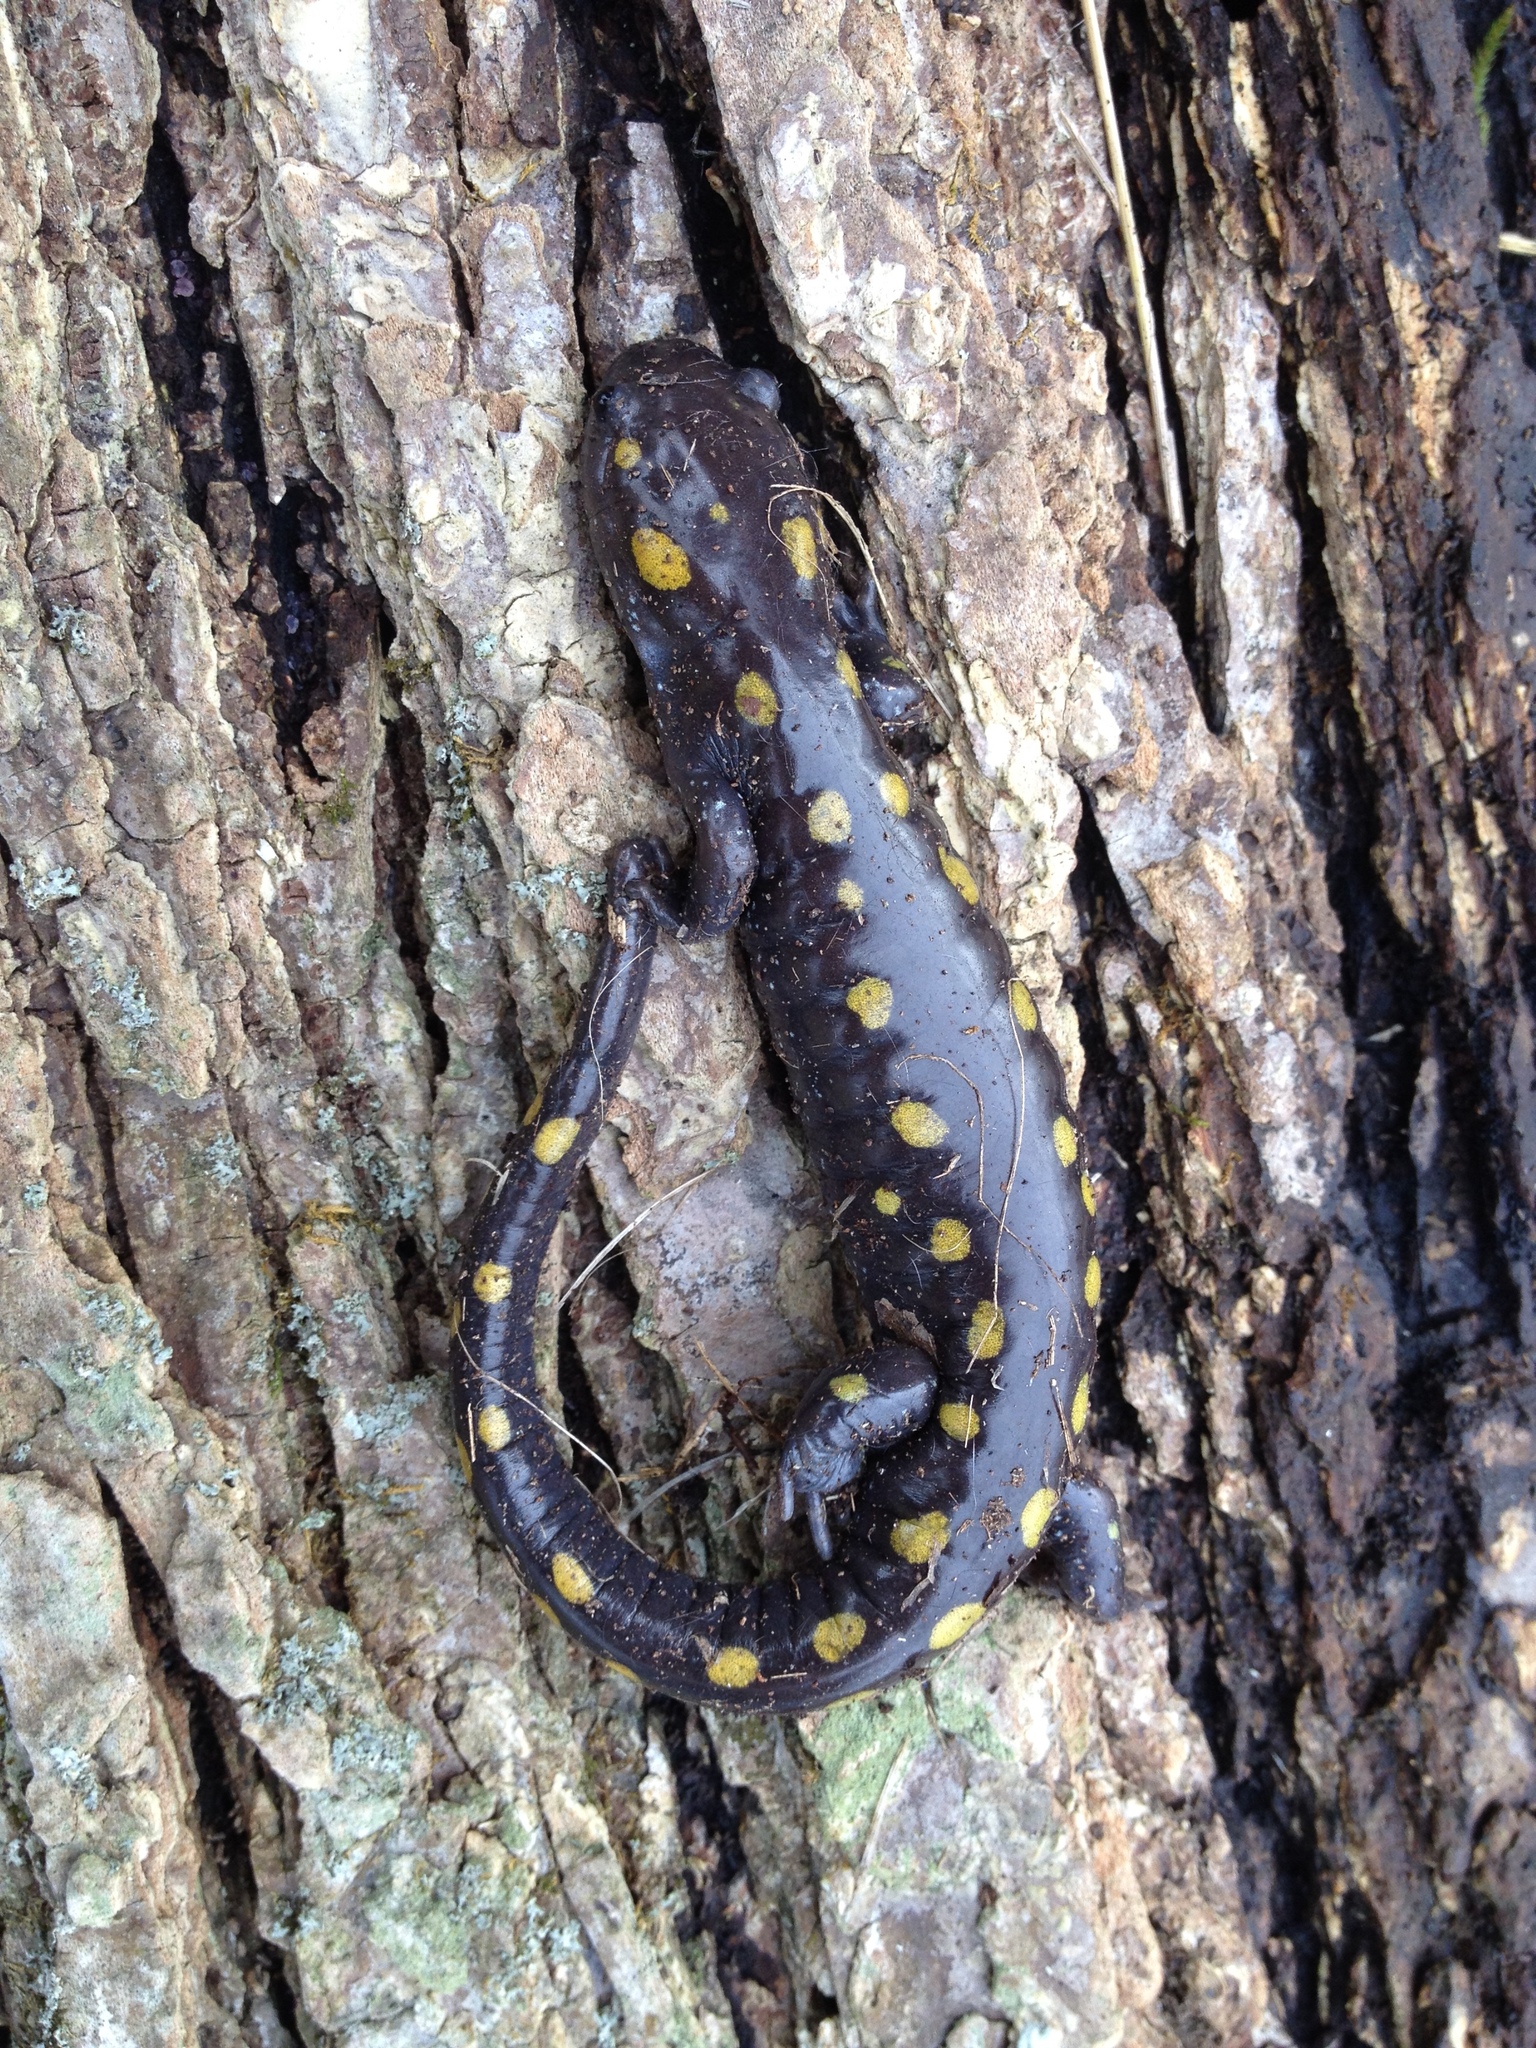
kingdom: Animalia
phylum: Chordata
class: Amphibia
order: Caudata
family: Ambystomatidae
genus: Ambystoma
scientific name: Ambystoma maculatum
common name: Spotted salamander
